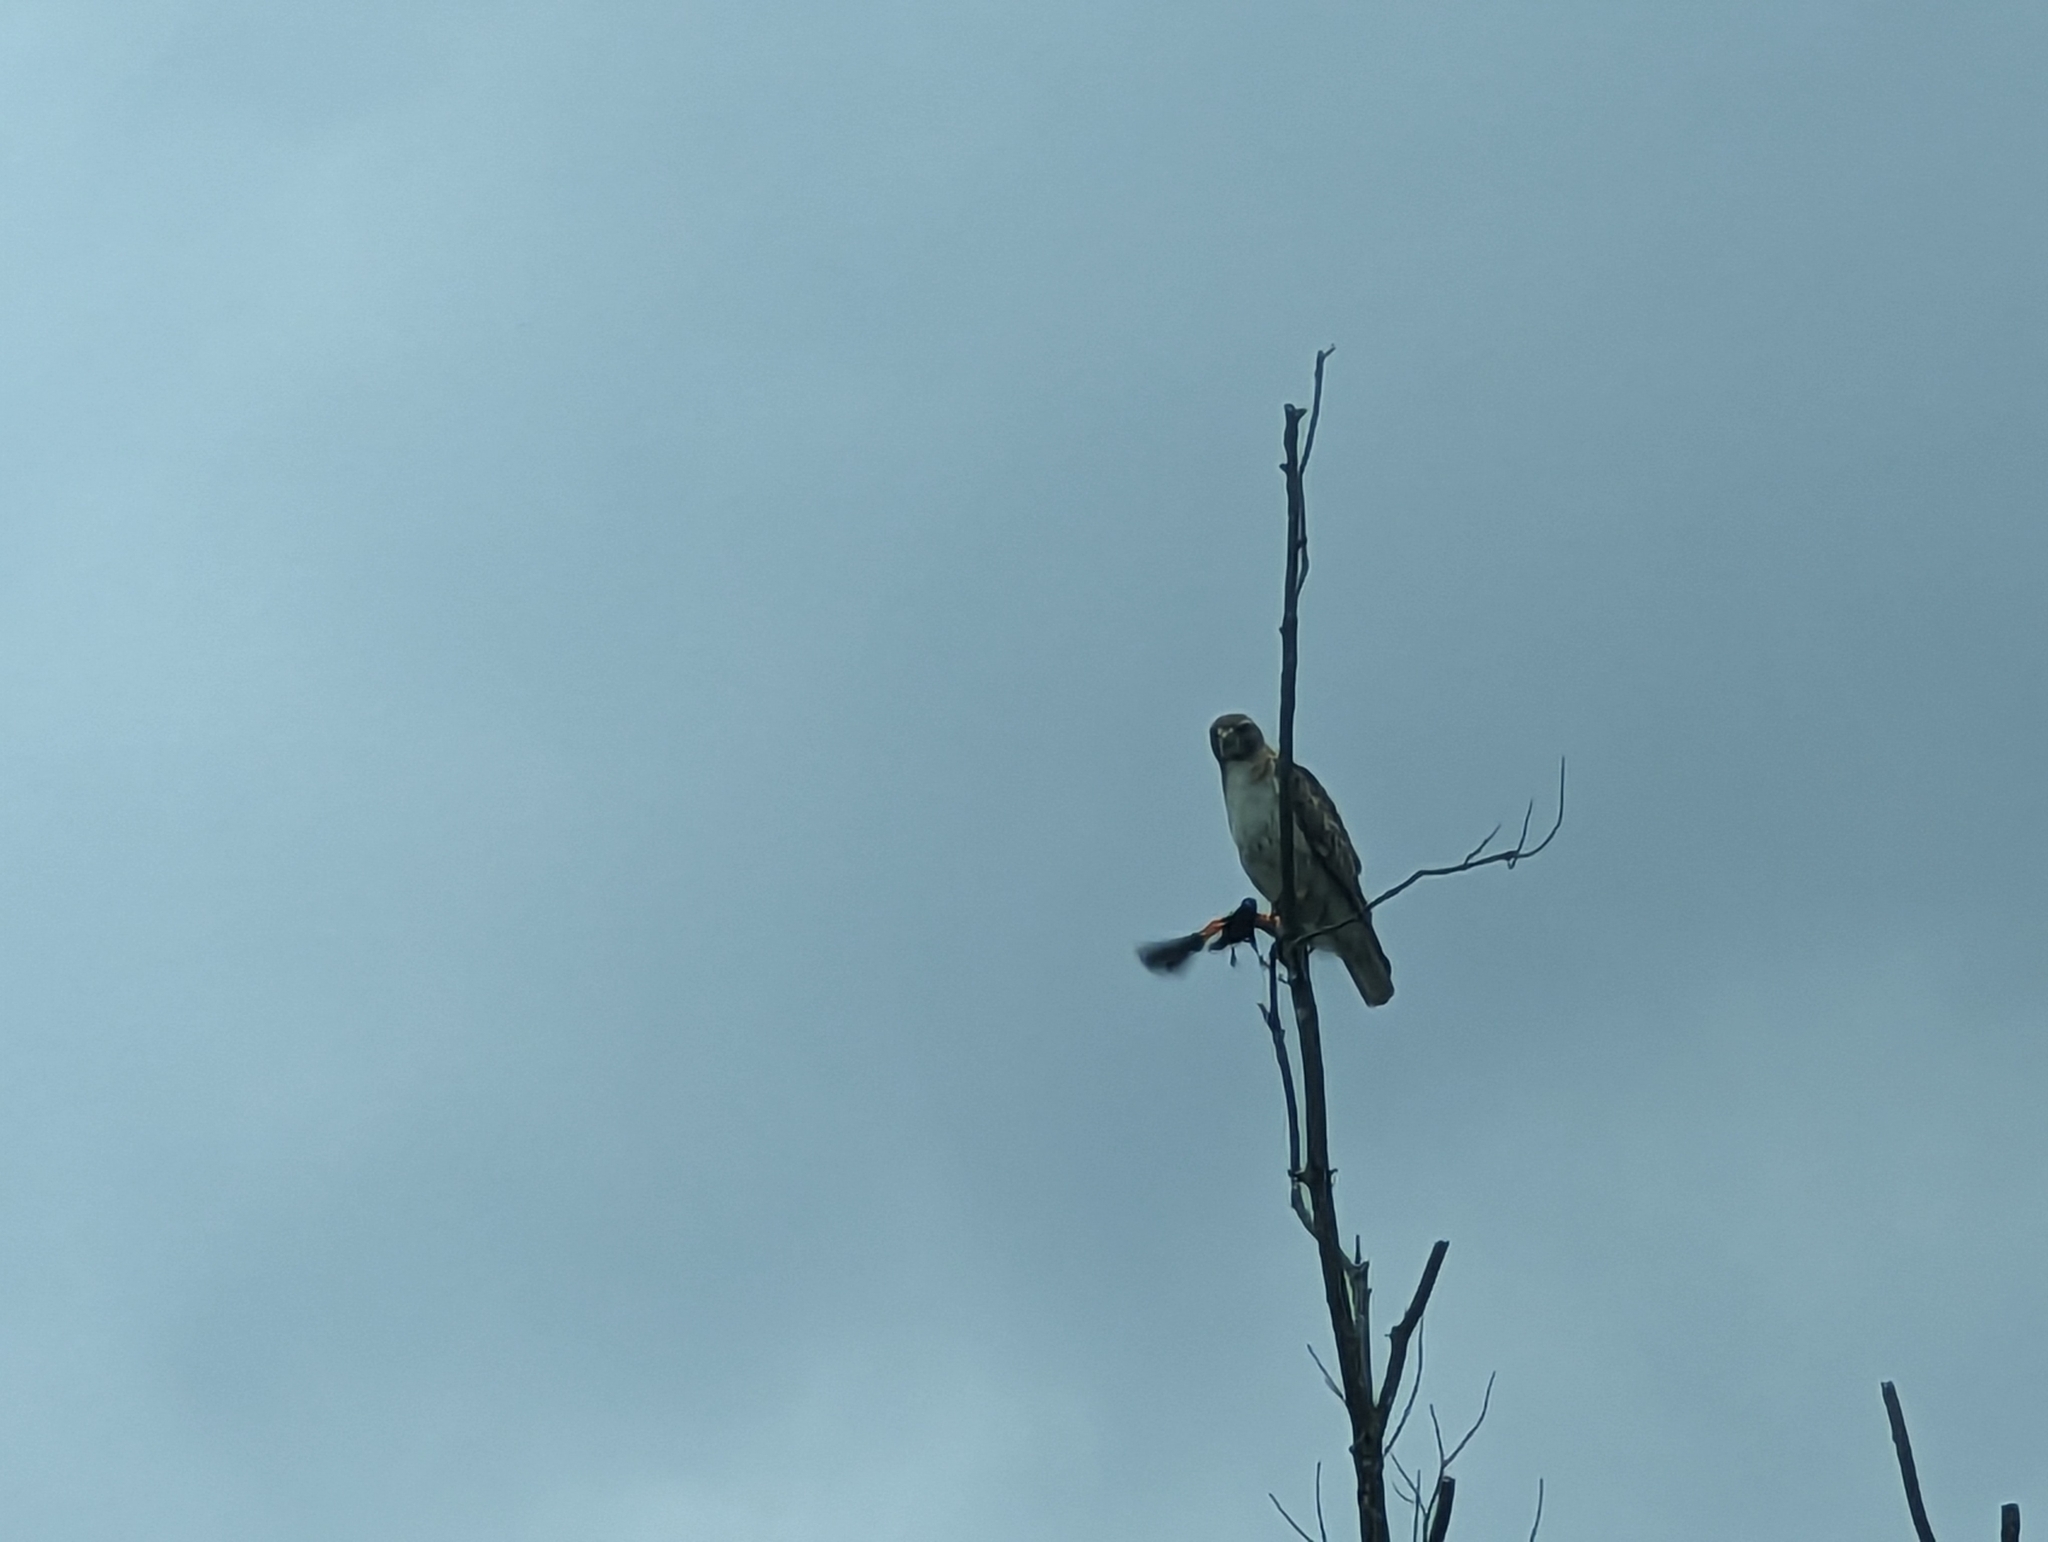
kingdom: Animalia
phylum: Chordata
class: Aves
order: Accipitriformes
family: Accipitridae
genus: Buteo
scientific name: Buteo jamaicensis
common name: Red-tailed hawk
